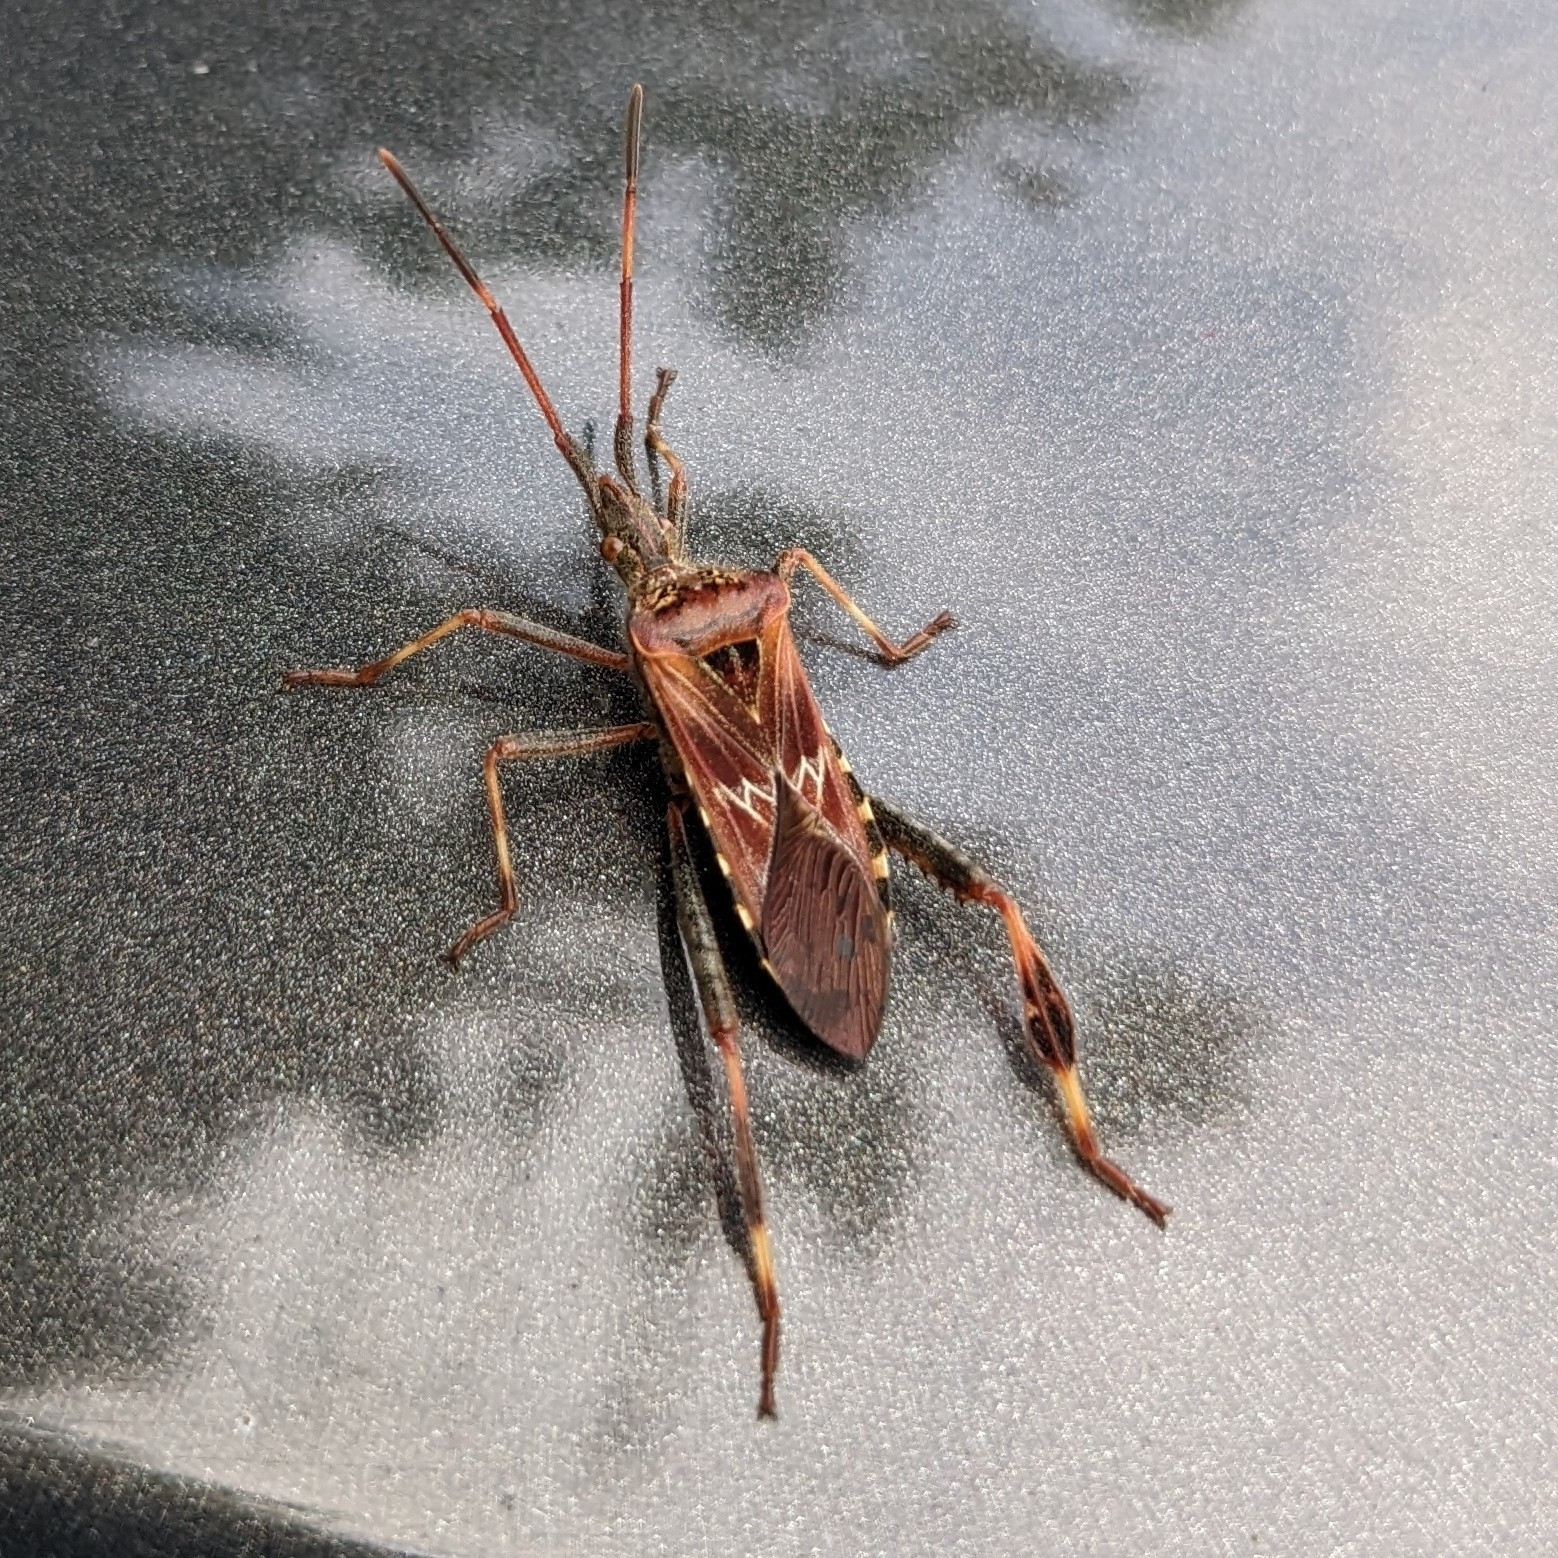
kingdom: Animalia
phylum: Arthropoda
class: Insecta
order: Hemiptera
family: Coreidae
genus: Leptoglossus
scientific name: Leptoglossus occidentalis
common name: Western conifer-seed bug
